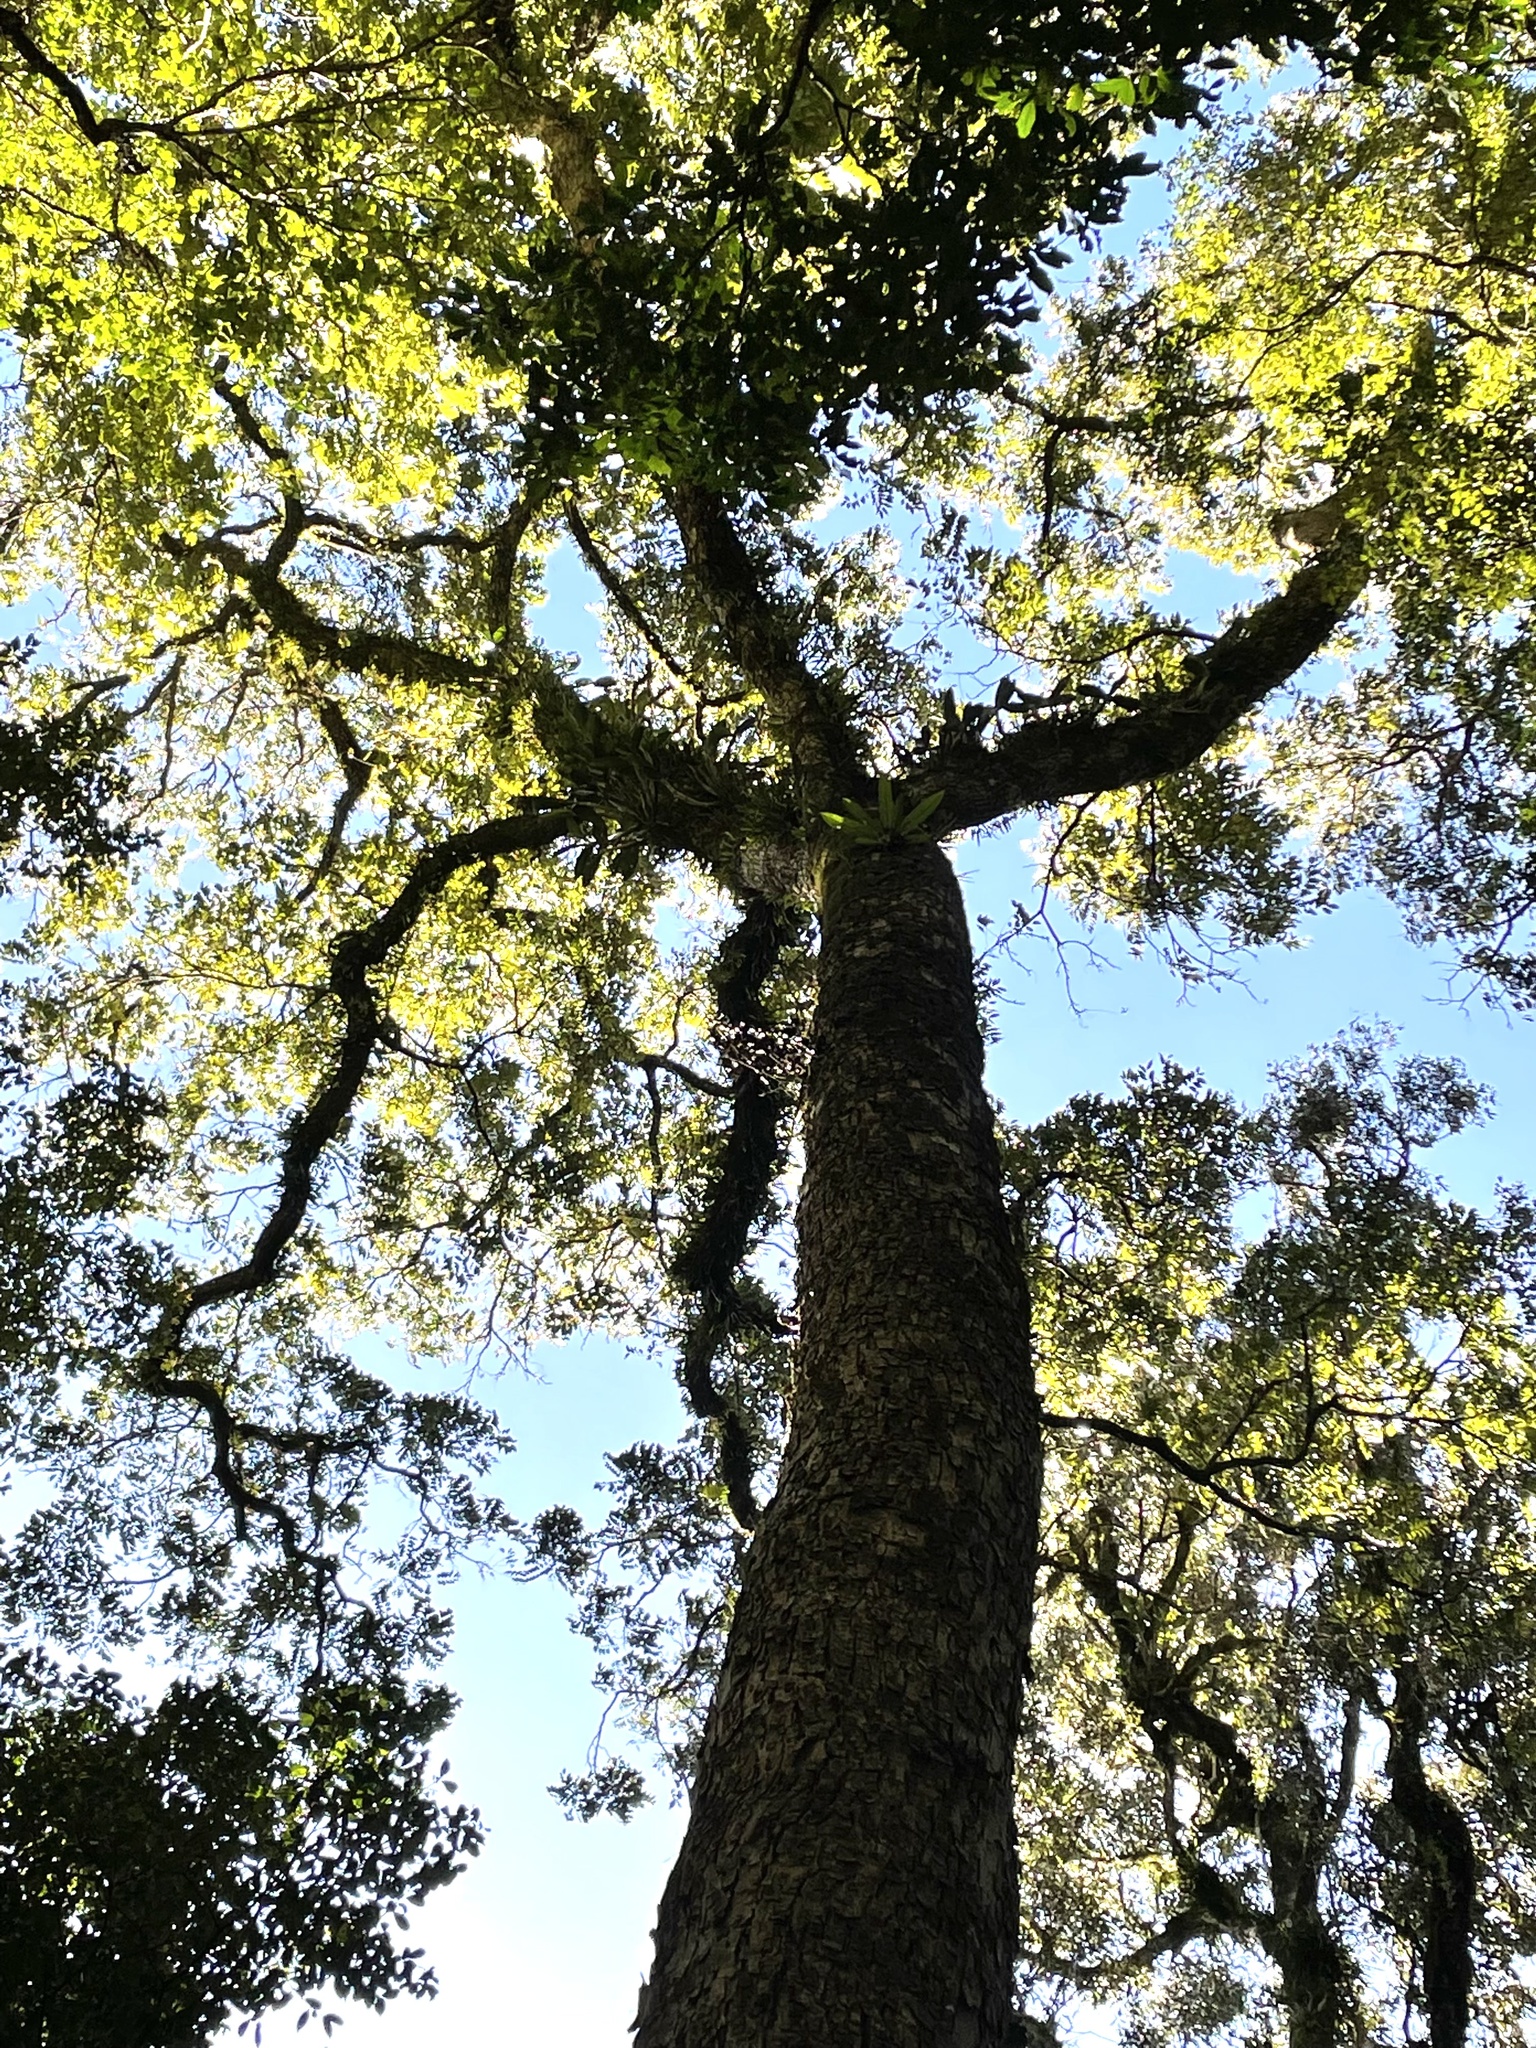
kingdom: Plantae
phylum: Tracheophyta
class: Magnoliopsida
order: Sapindales
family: Meliaceae
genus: Toona
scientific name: Toona ciliata
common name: Australian redcedar
